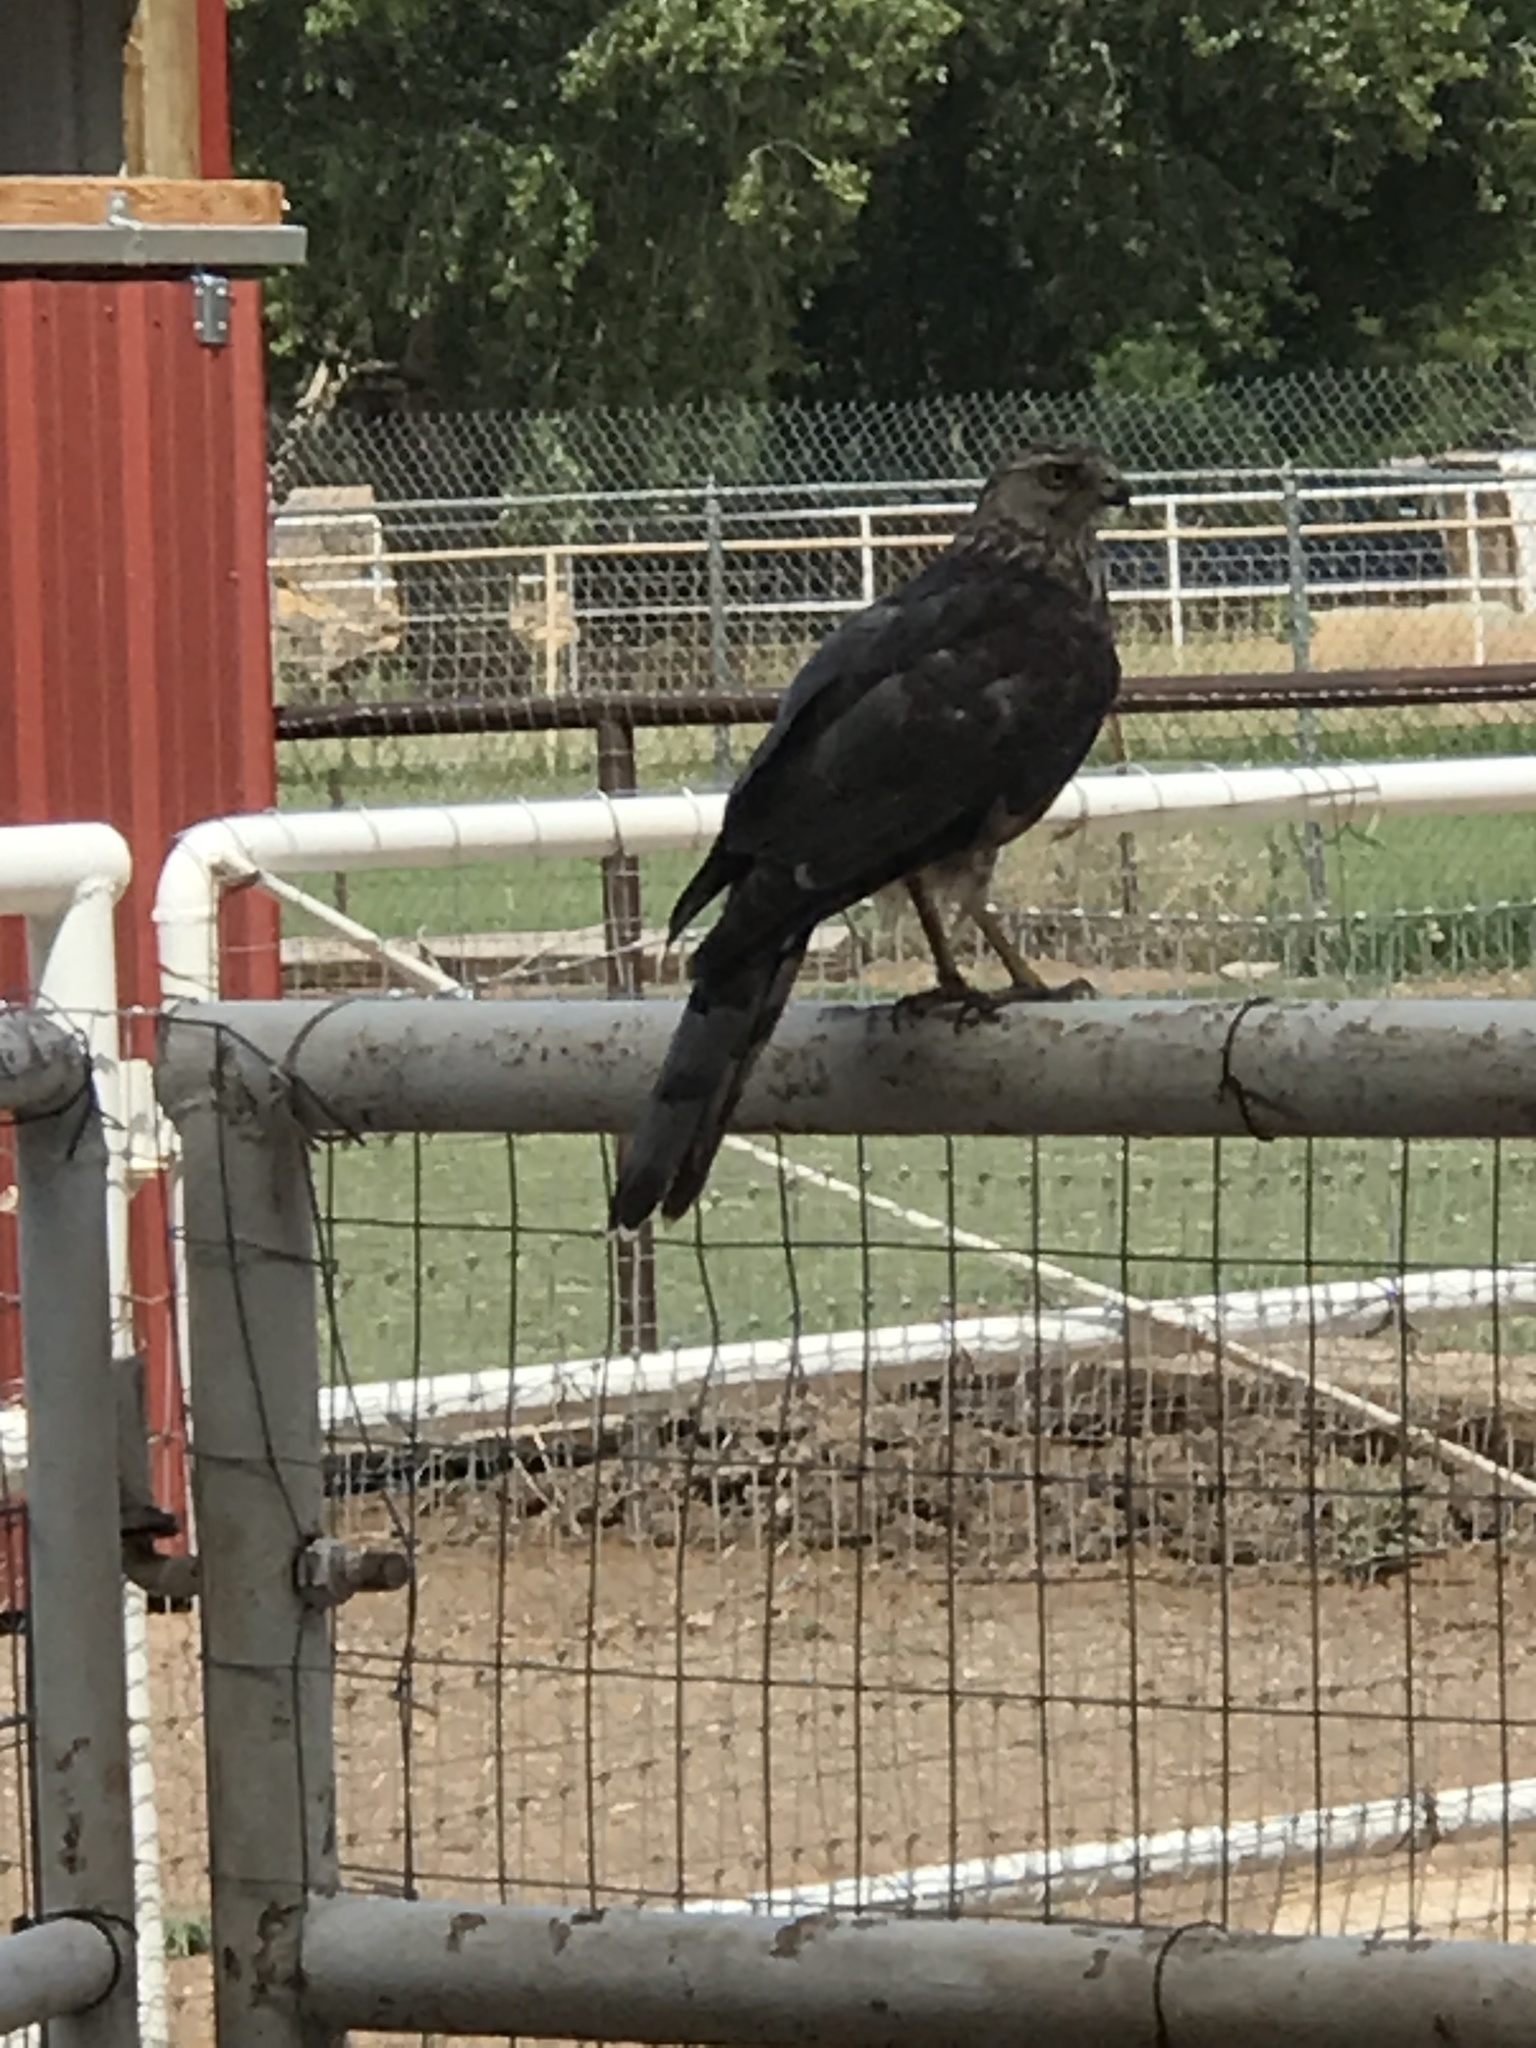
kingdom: Animalia
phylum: Chordata
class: Aves
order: Accipitriformes
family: Accipitridae
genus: Accipiter
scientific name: Accipiter cooperii
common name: Cooper's hawk
